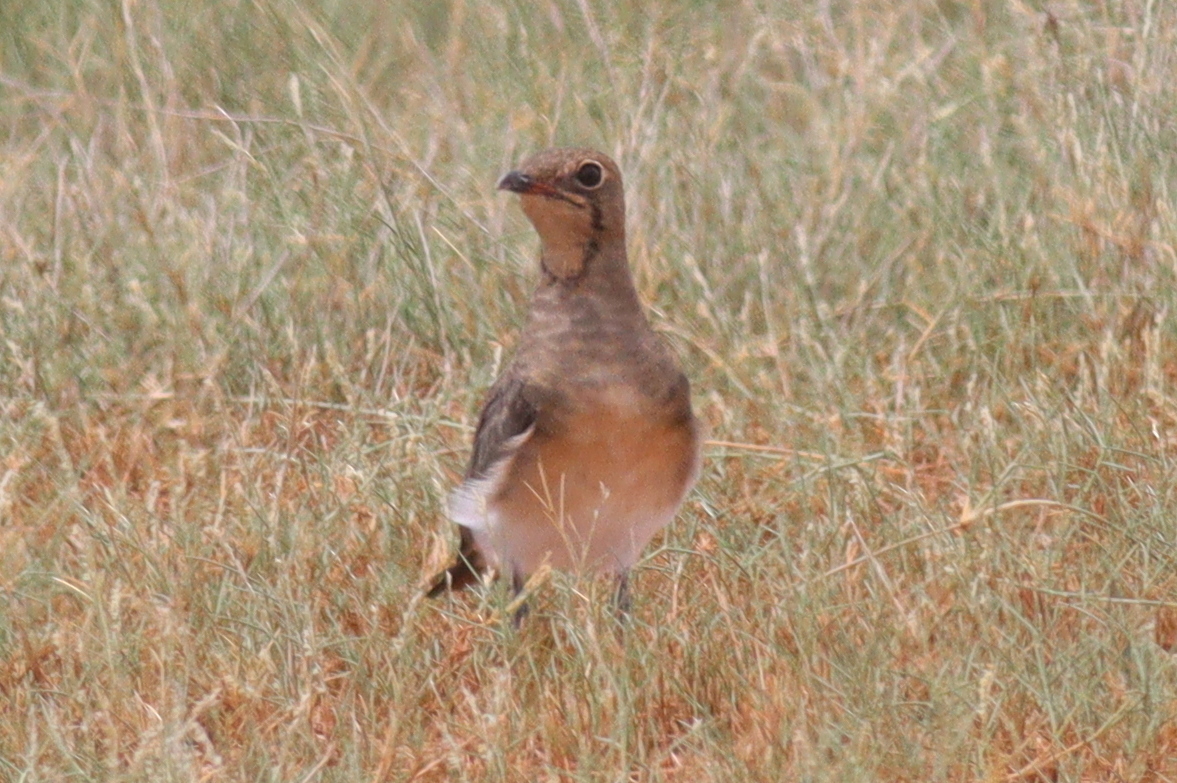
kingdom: Animalia
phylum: Chordata
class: Aves
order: Charadriiformes
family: Glareolidae
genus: Glareola
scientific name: Glareola pratincola
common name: Collared pratincole
